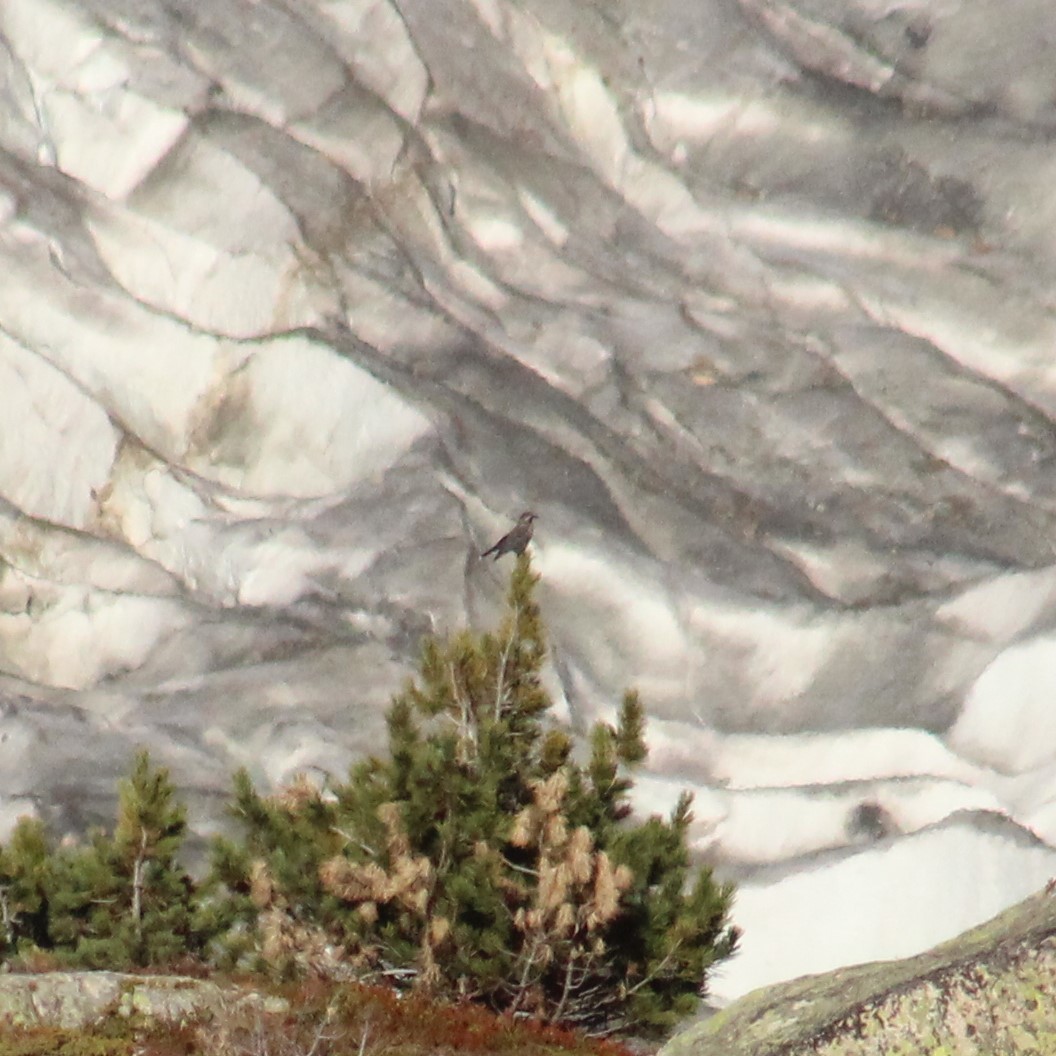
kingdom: Animalia
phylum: Chordata
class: Aves
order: Passeriformes
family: Corvidae
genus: Nucifraga
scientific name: Nucifraga caryocatactes
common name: Spotted nutcracker
